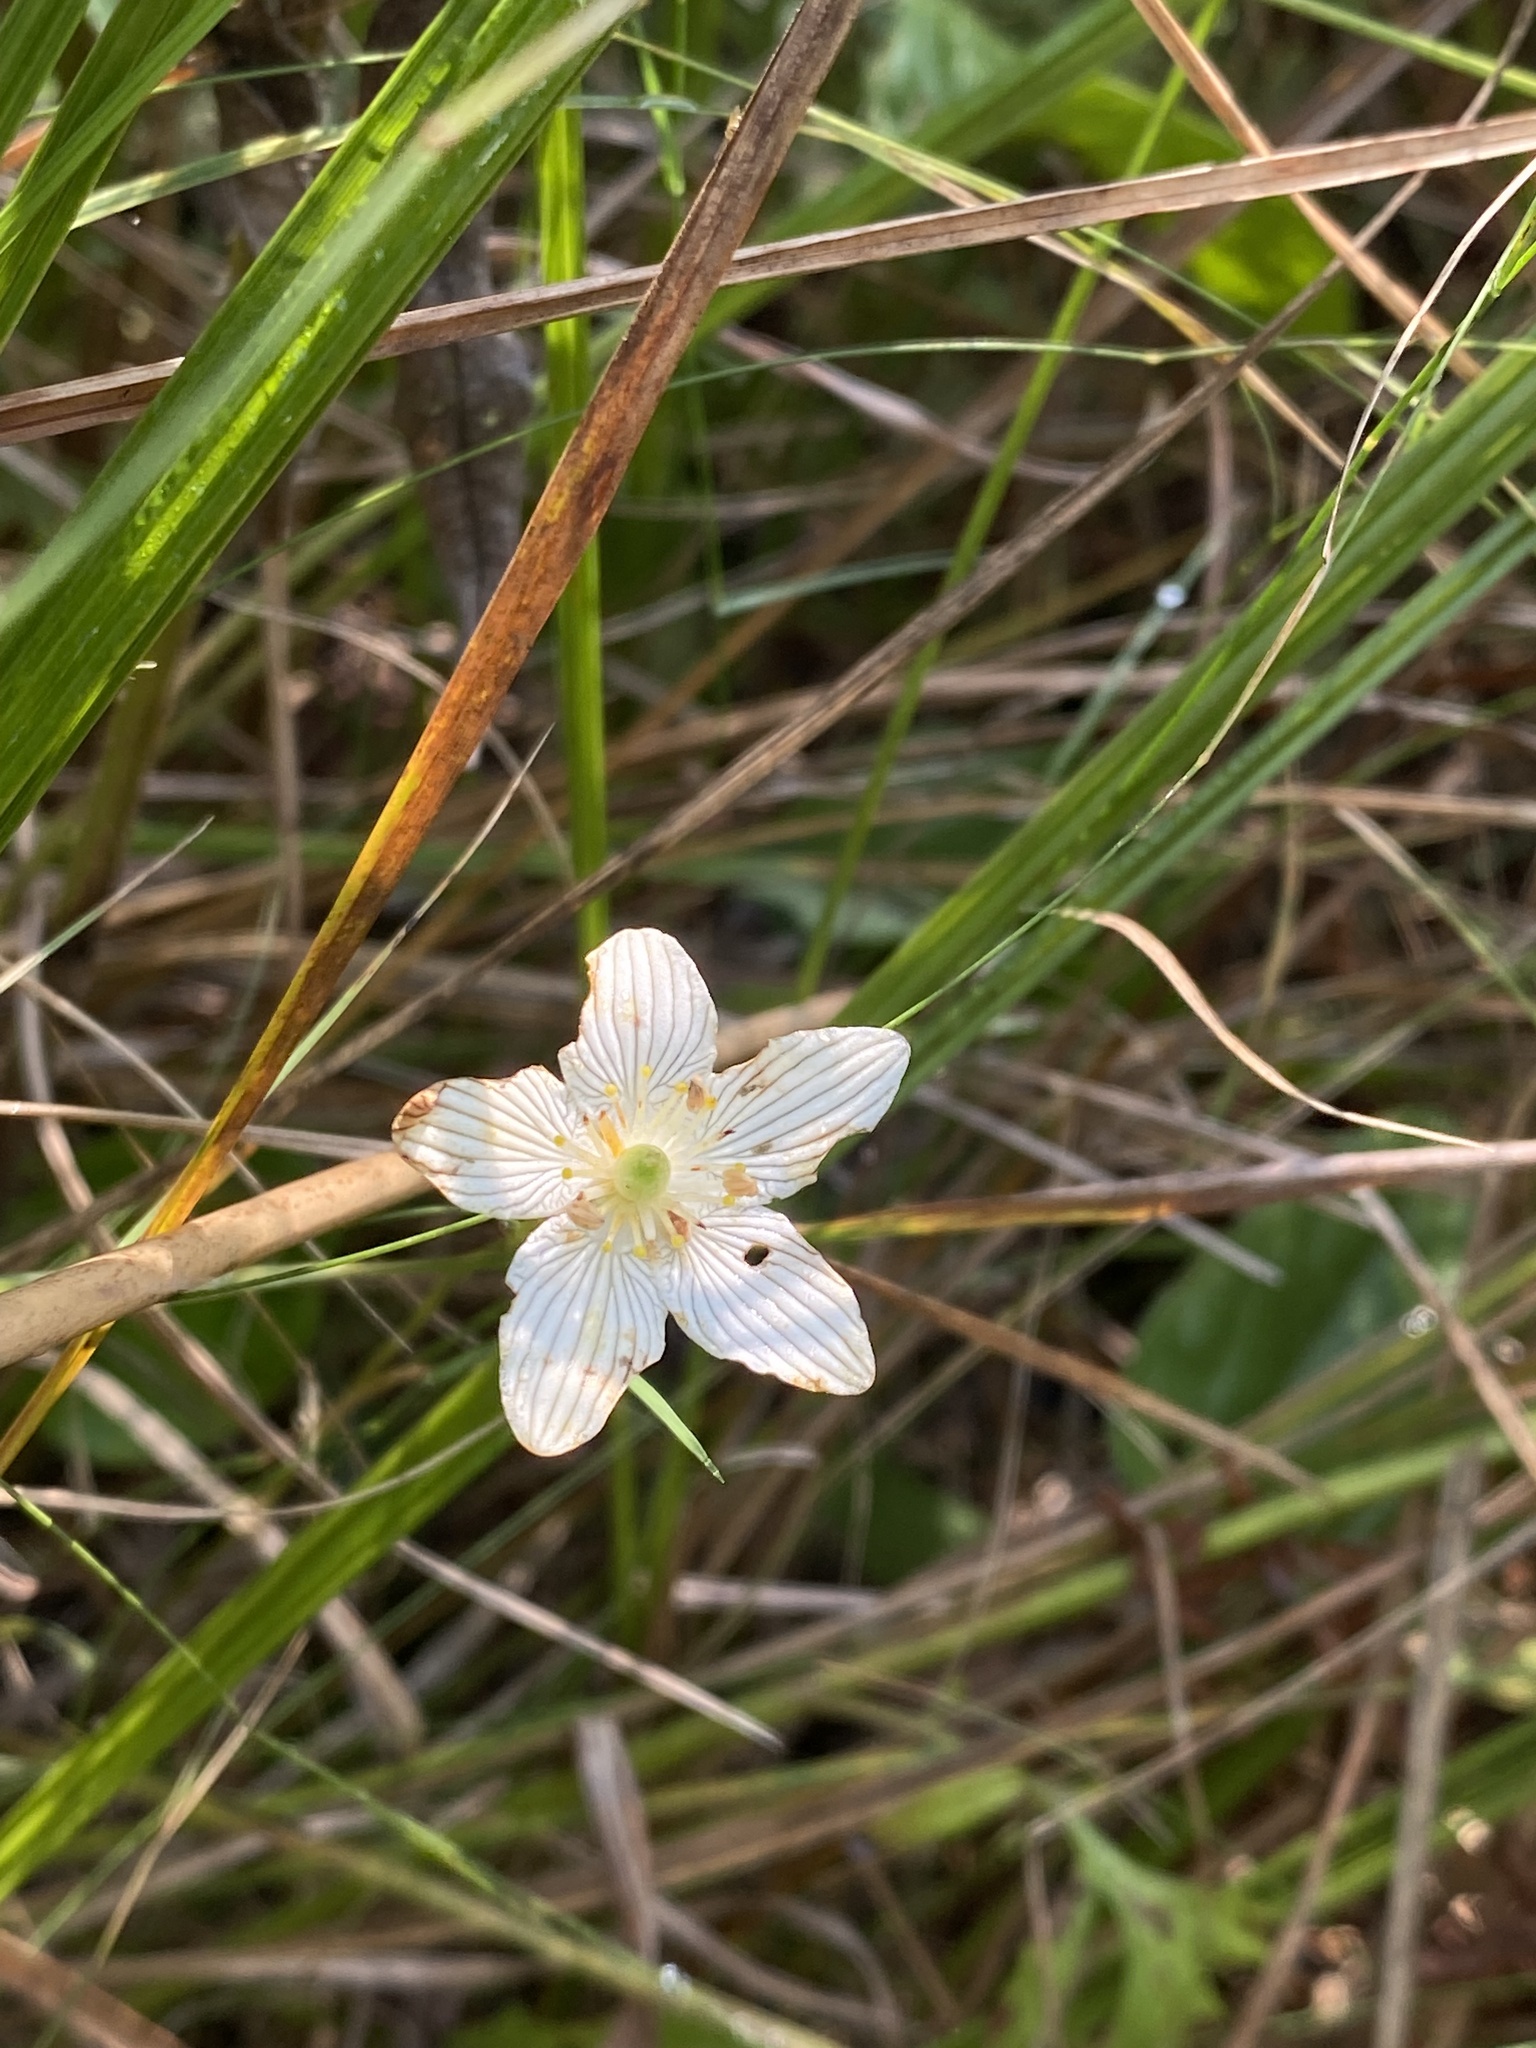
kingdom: Plantae
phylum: Tracheophyta
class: Magnoliopsida
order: Celastrales
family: Parnassiaceae
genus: Parnassia
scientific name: Parnassia glauca
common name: American grass-of-parnassus
